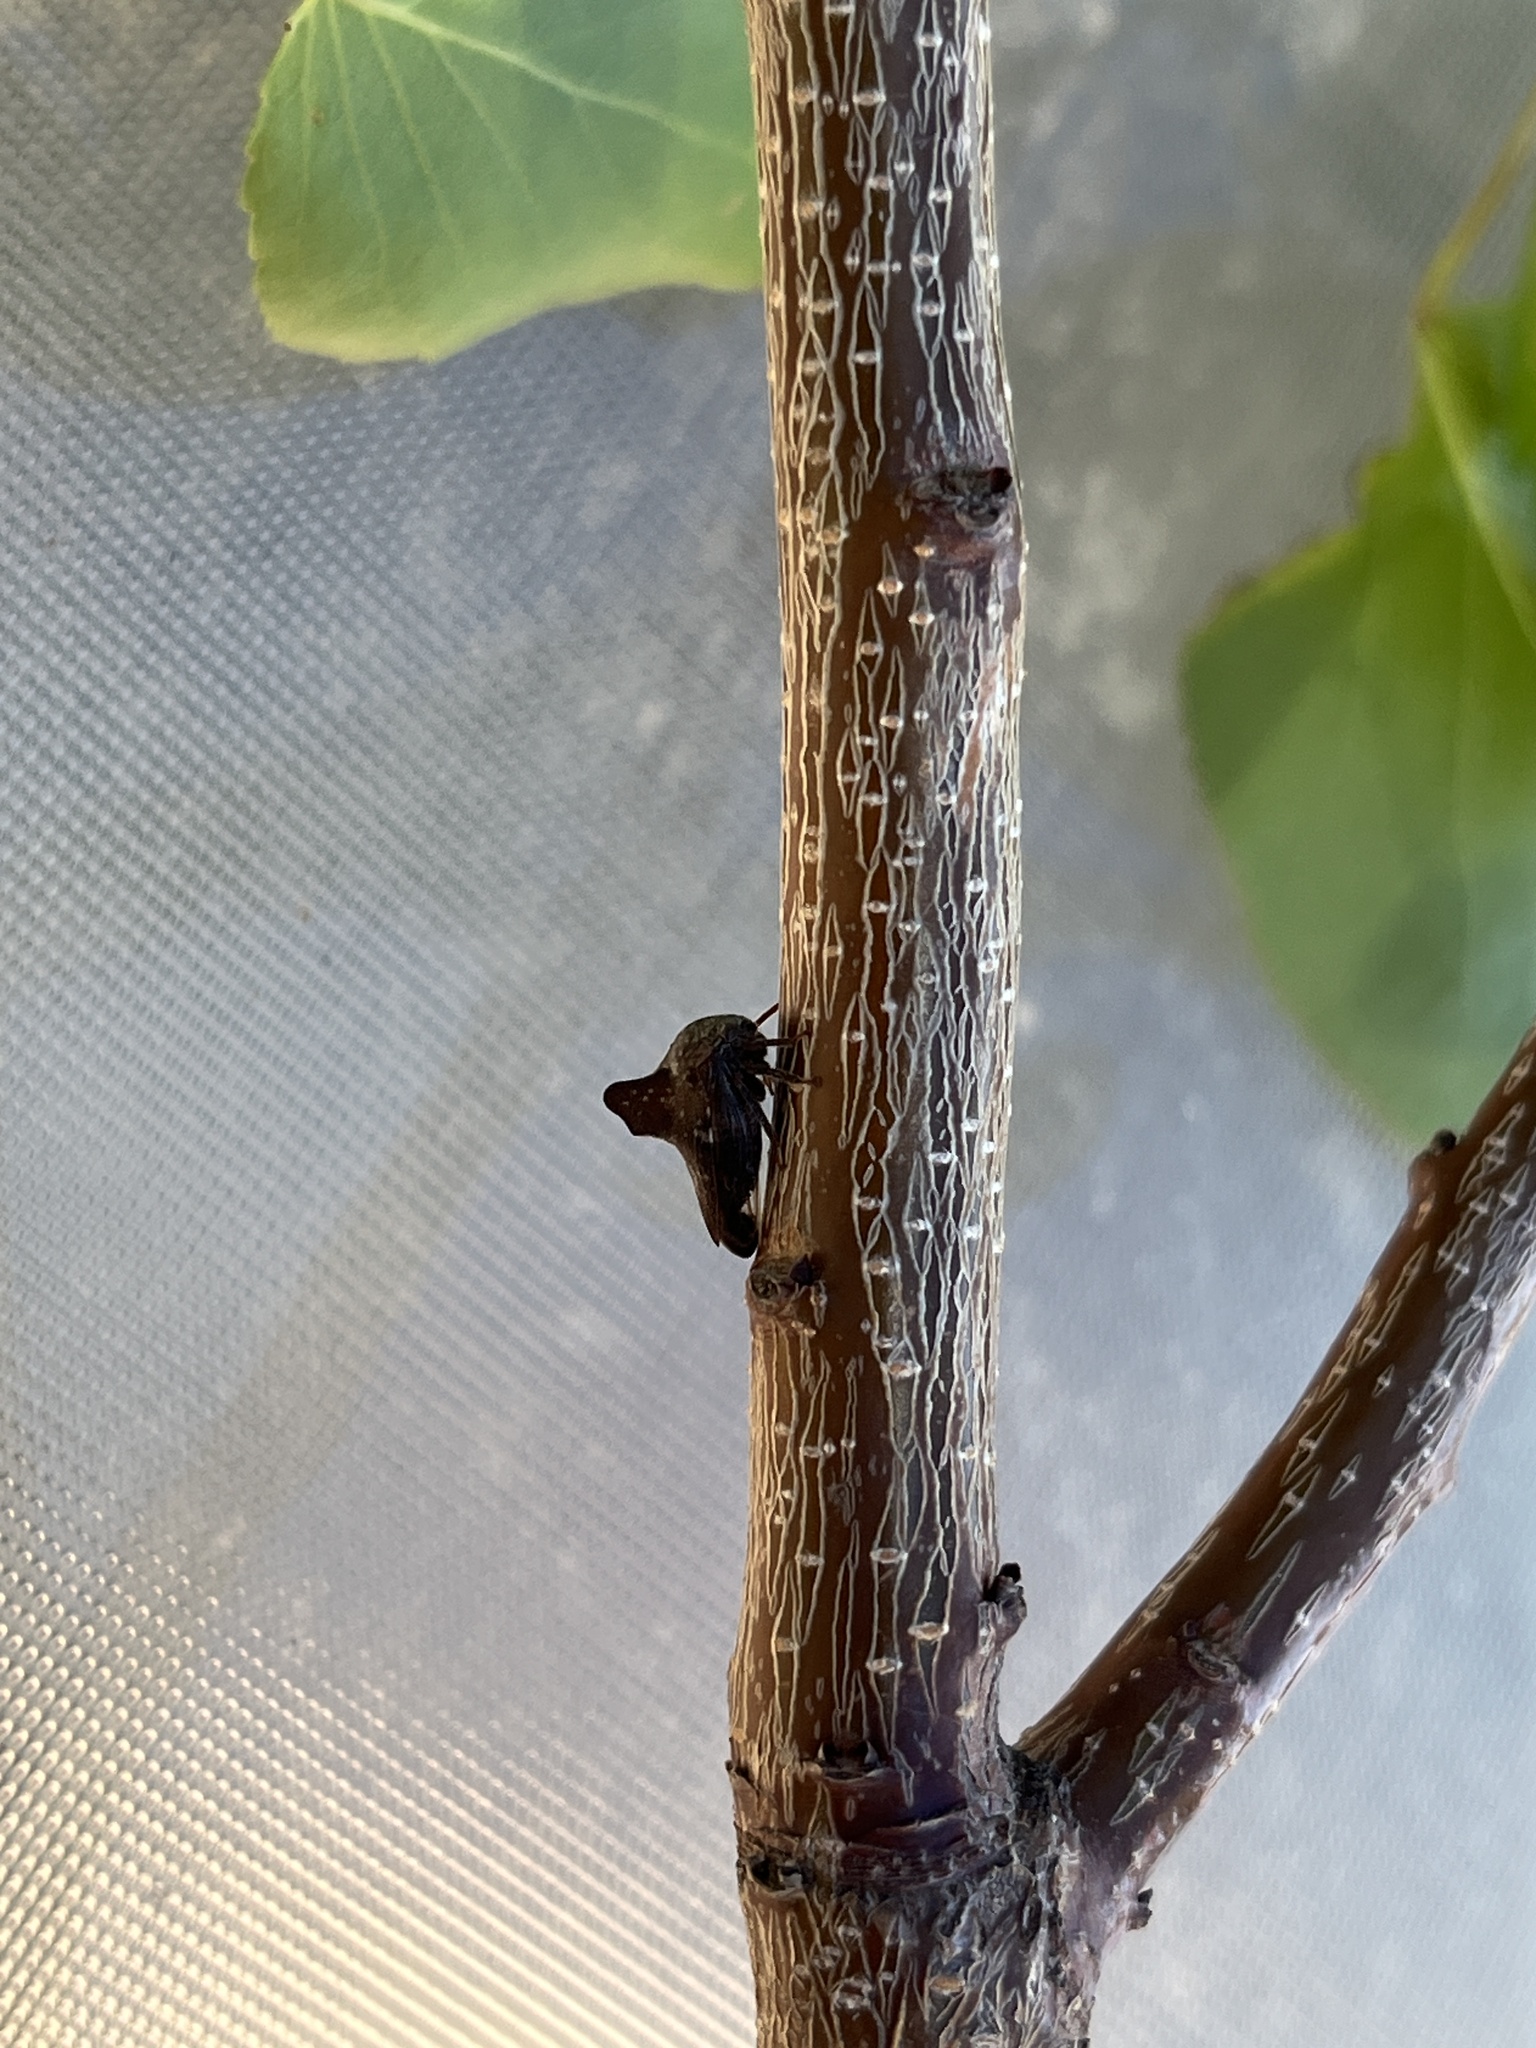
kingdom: Animalia
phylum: Arthropoda
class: Insecta
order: Hemiptera
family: Membracidae
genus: Heliria
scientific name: Heliria praealta
